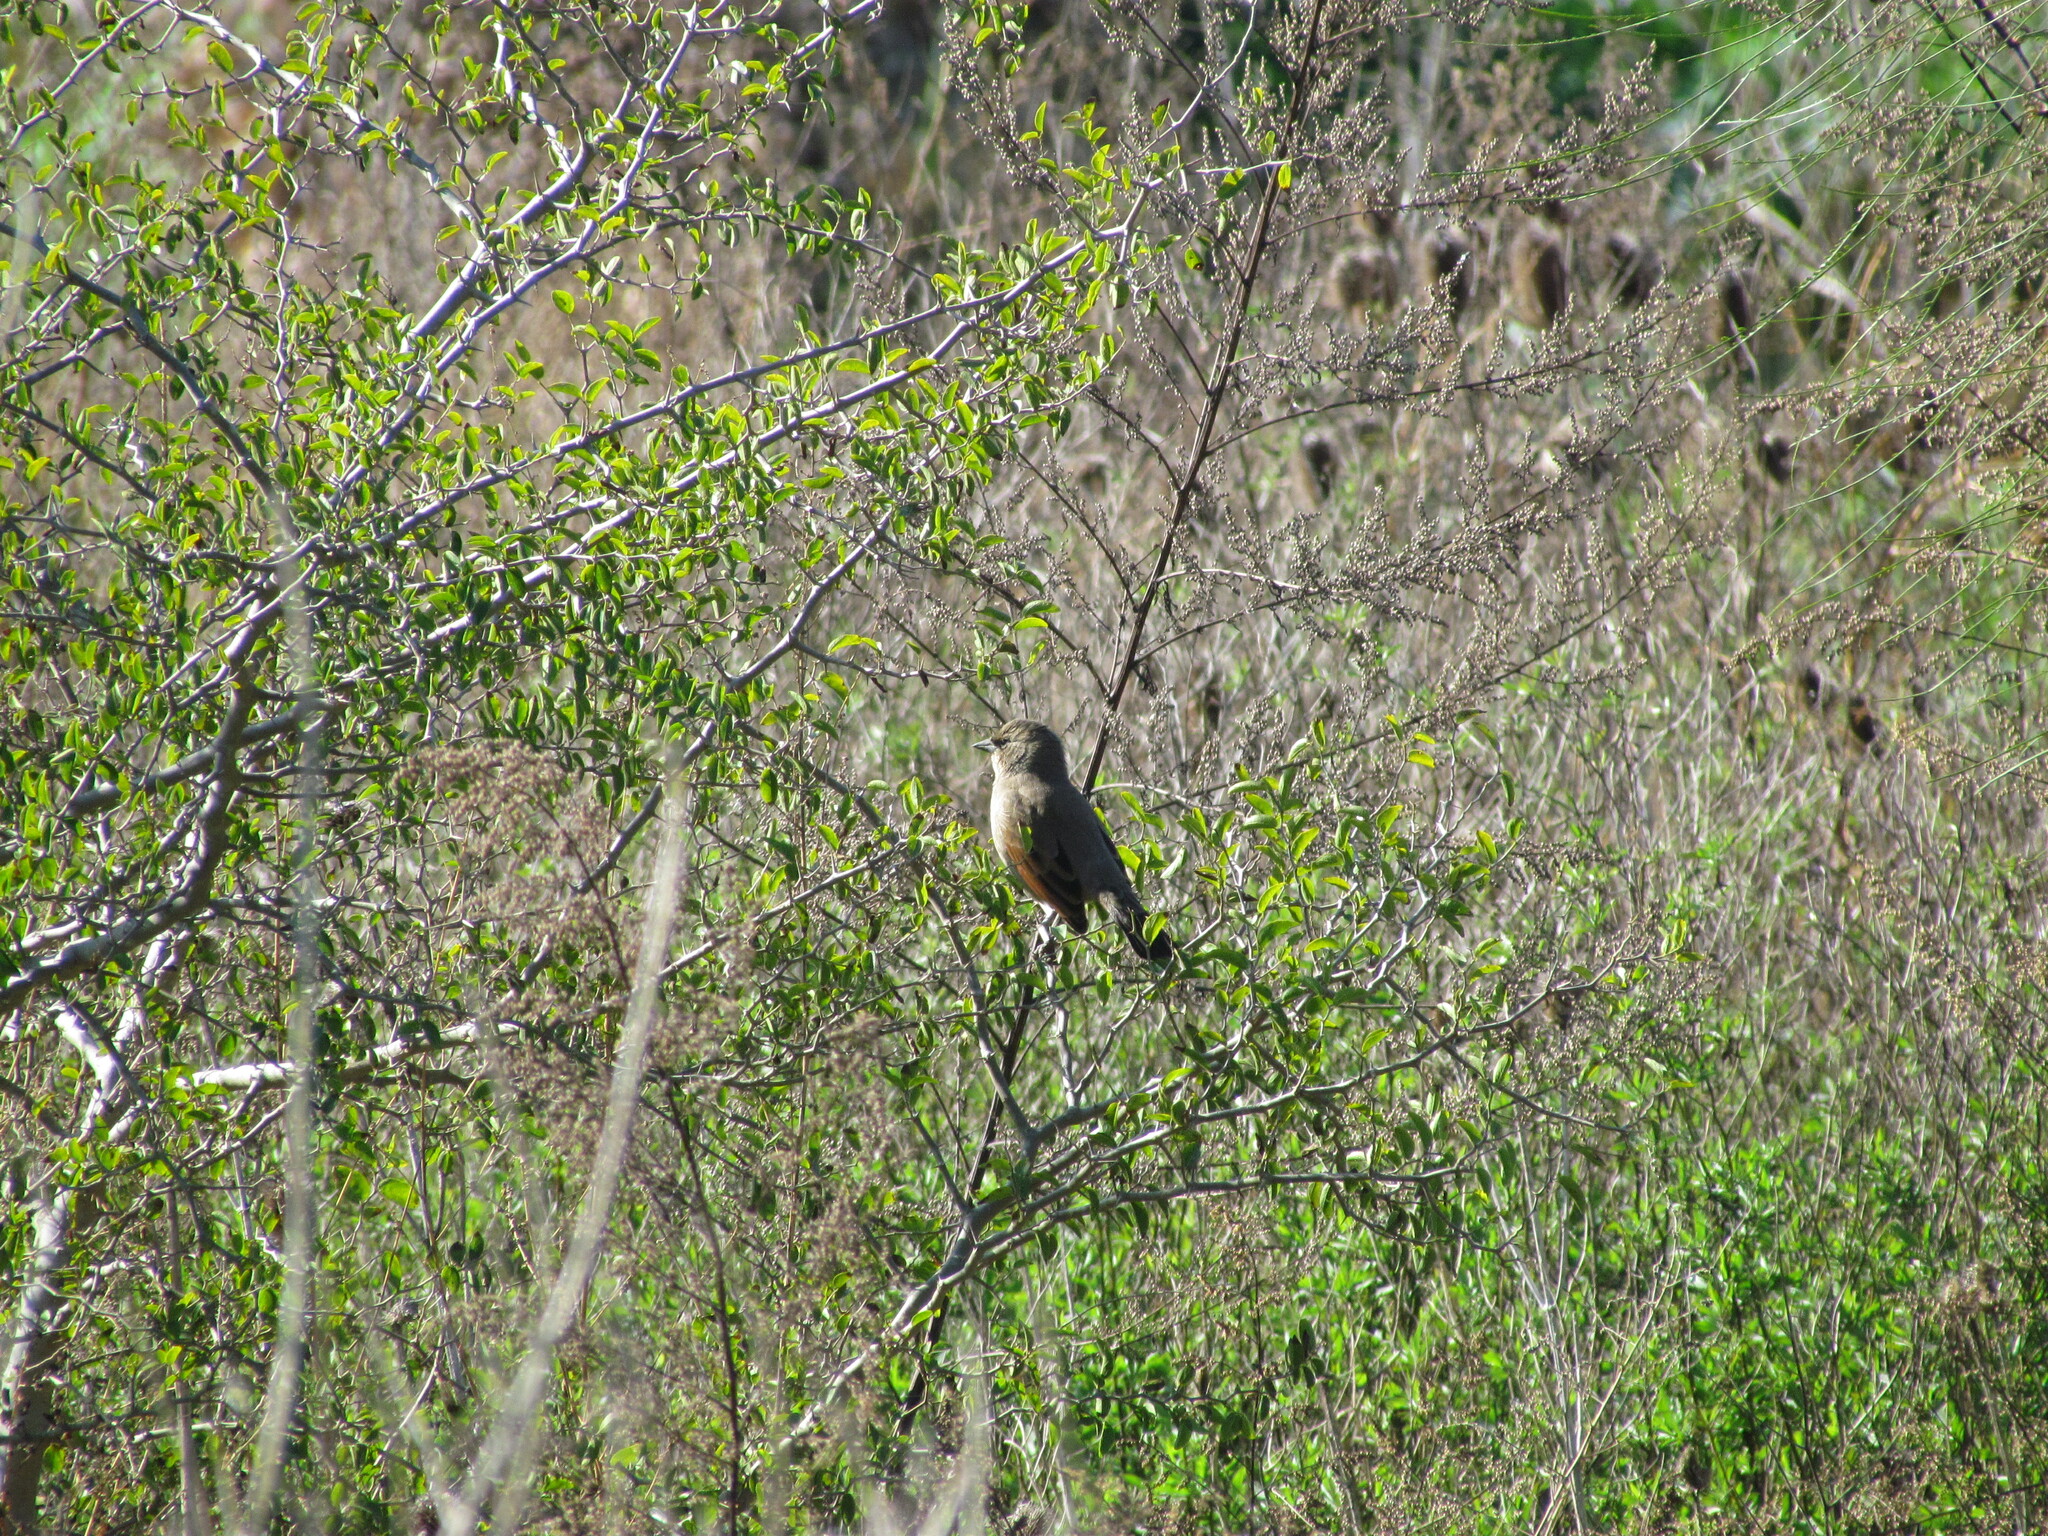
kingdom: Animalia
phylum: Chordata
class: Aves
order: Passeriformes
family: Icteridae
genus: Agelaioides
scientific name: Agelaioides badius
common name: Baywing
